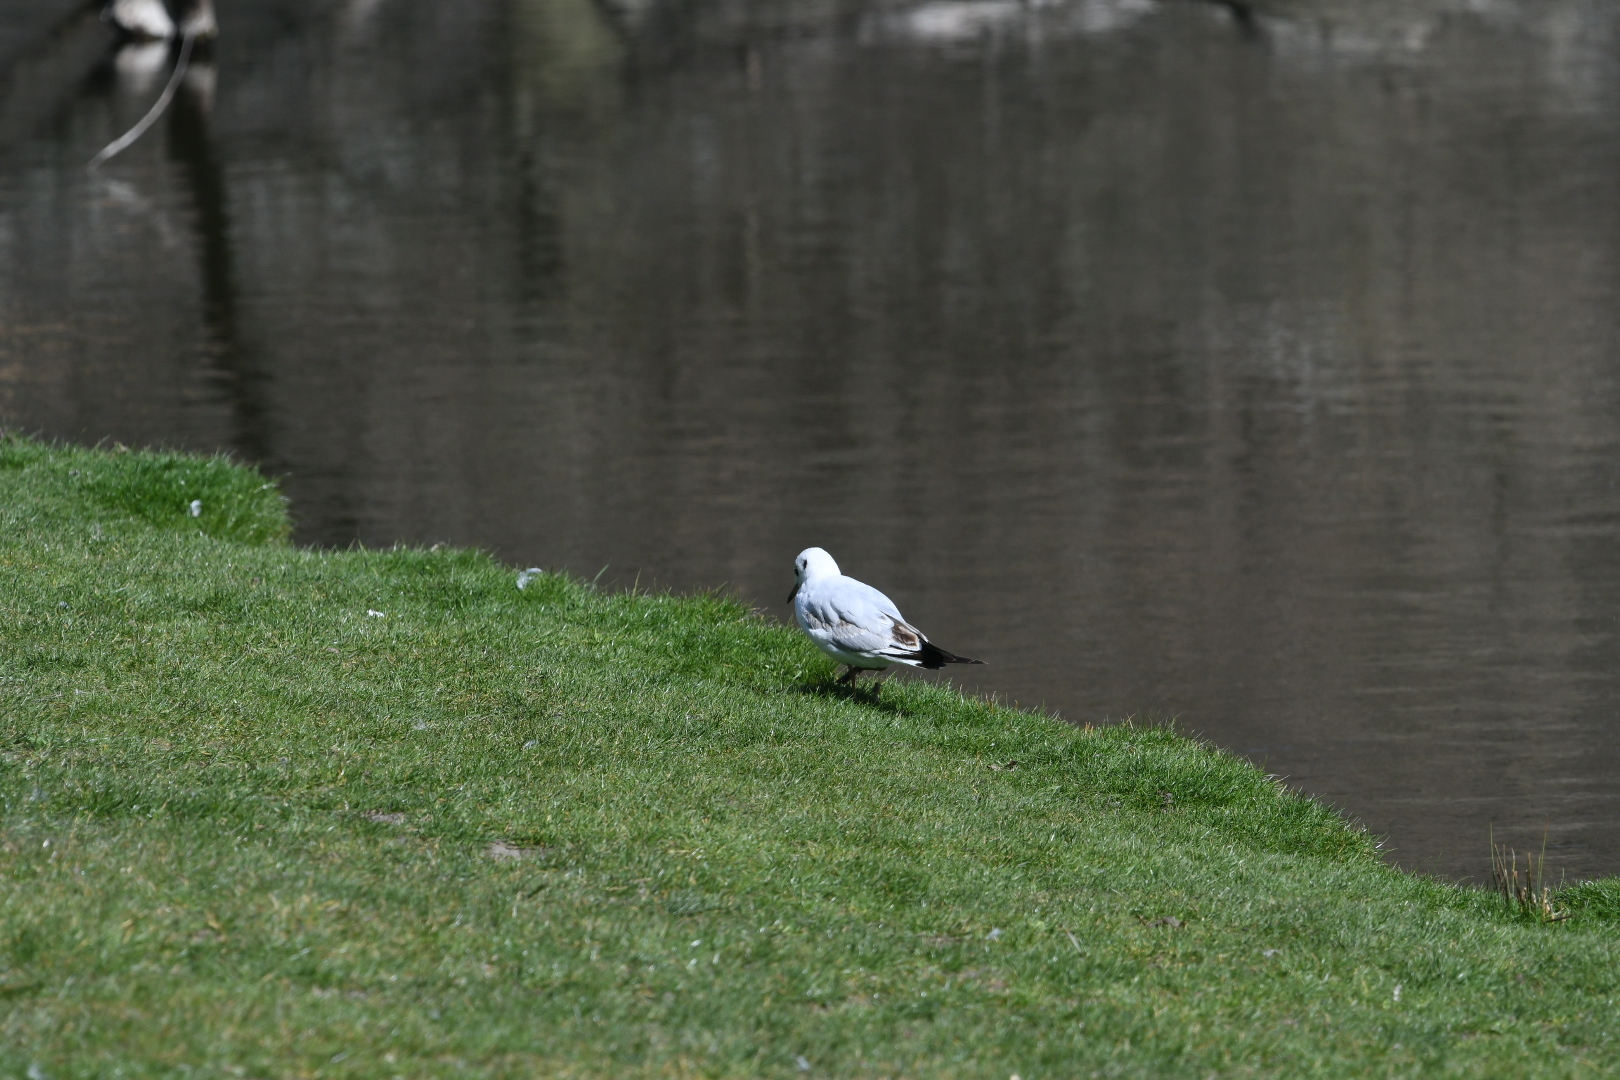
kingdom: Animalia
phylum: Chordata
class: Aves
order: Charadriiformes
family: Laridae
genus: Chroicocephalus
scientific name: Chroicocephalus ridibundus
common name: Black-headed gull
